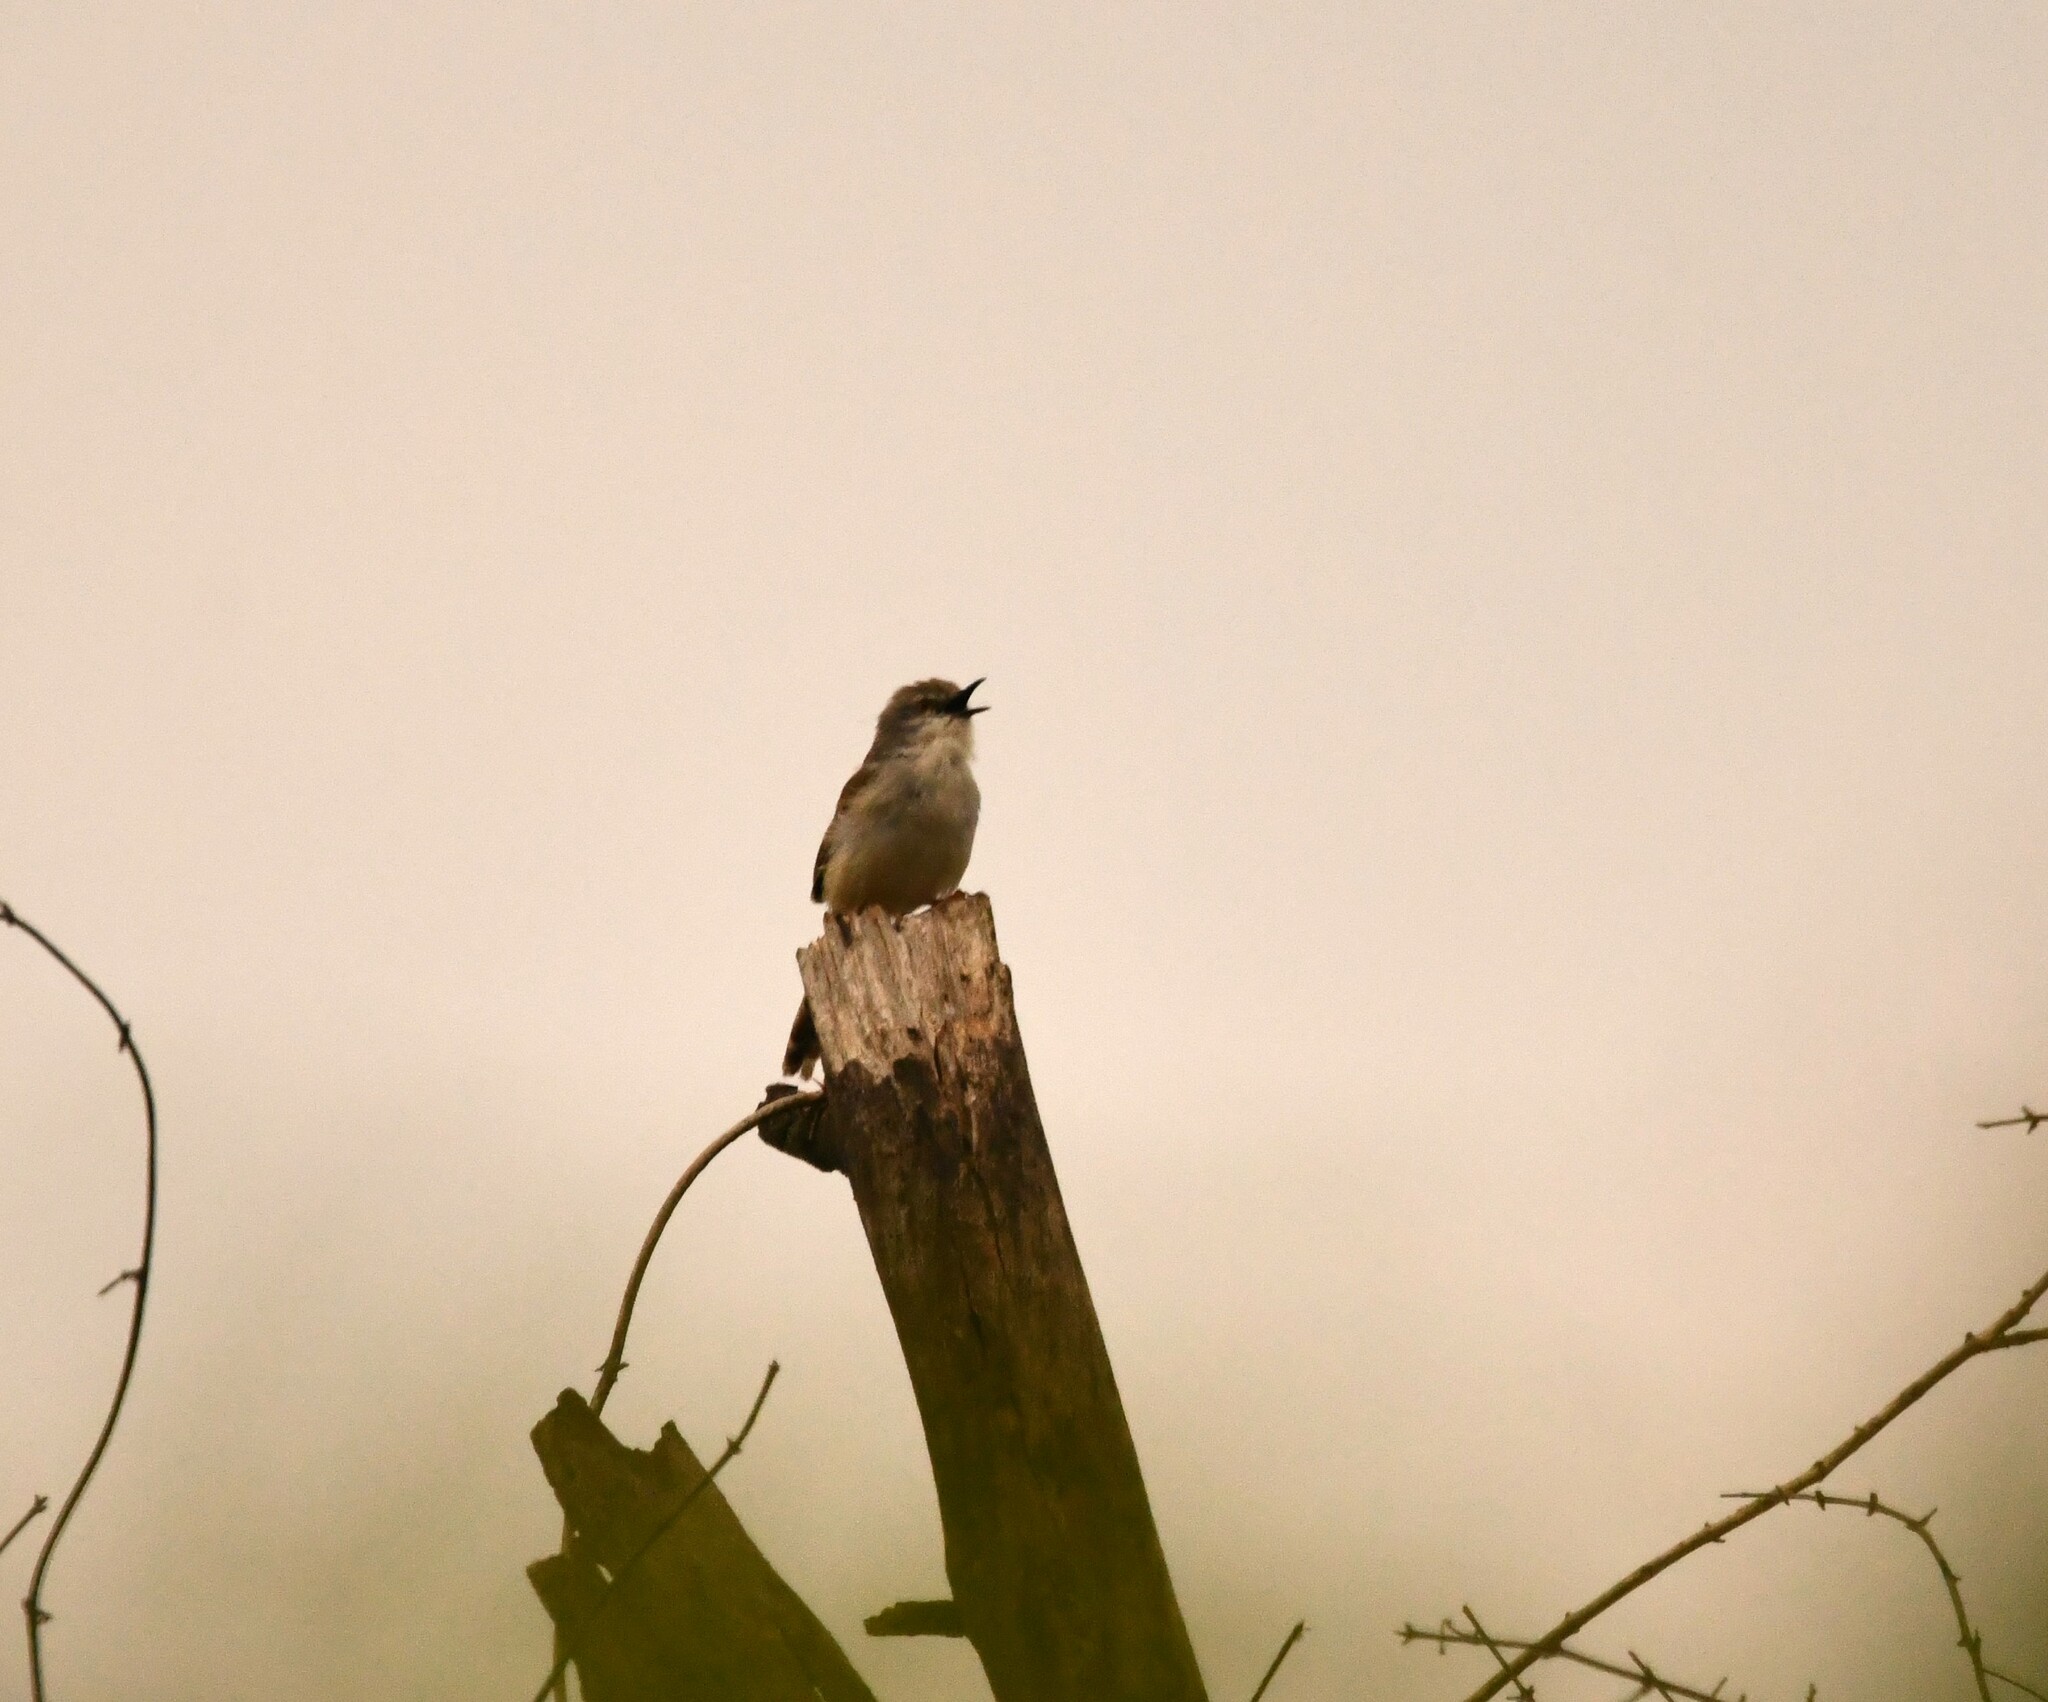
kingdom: Animalia
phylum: Chordata
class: Aves
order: Passeriformes
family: Cisticolidae
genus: Prinia
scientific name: Prinia hodgsonii
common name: Grey-breasted prinia
